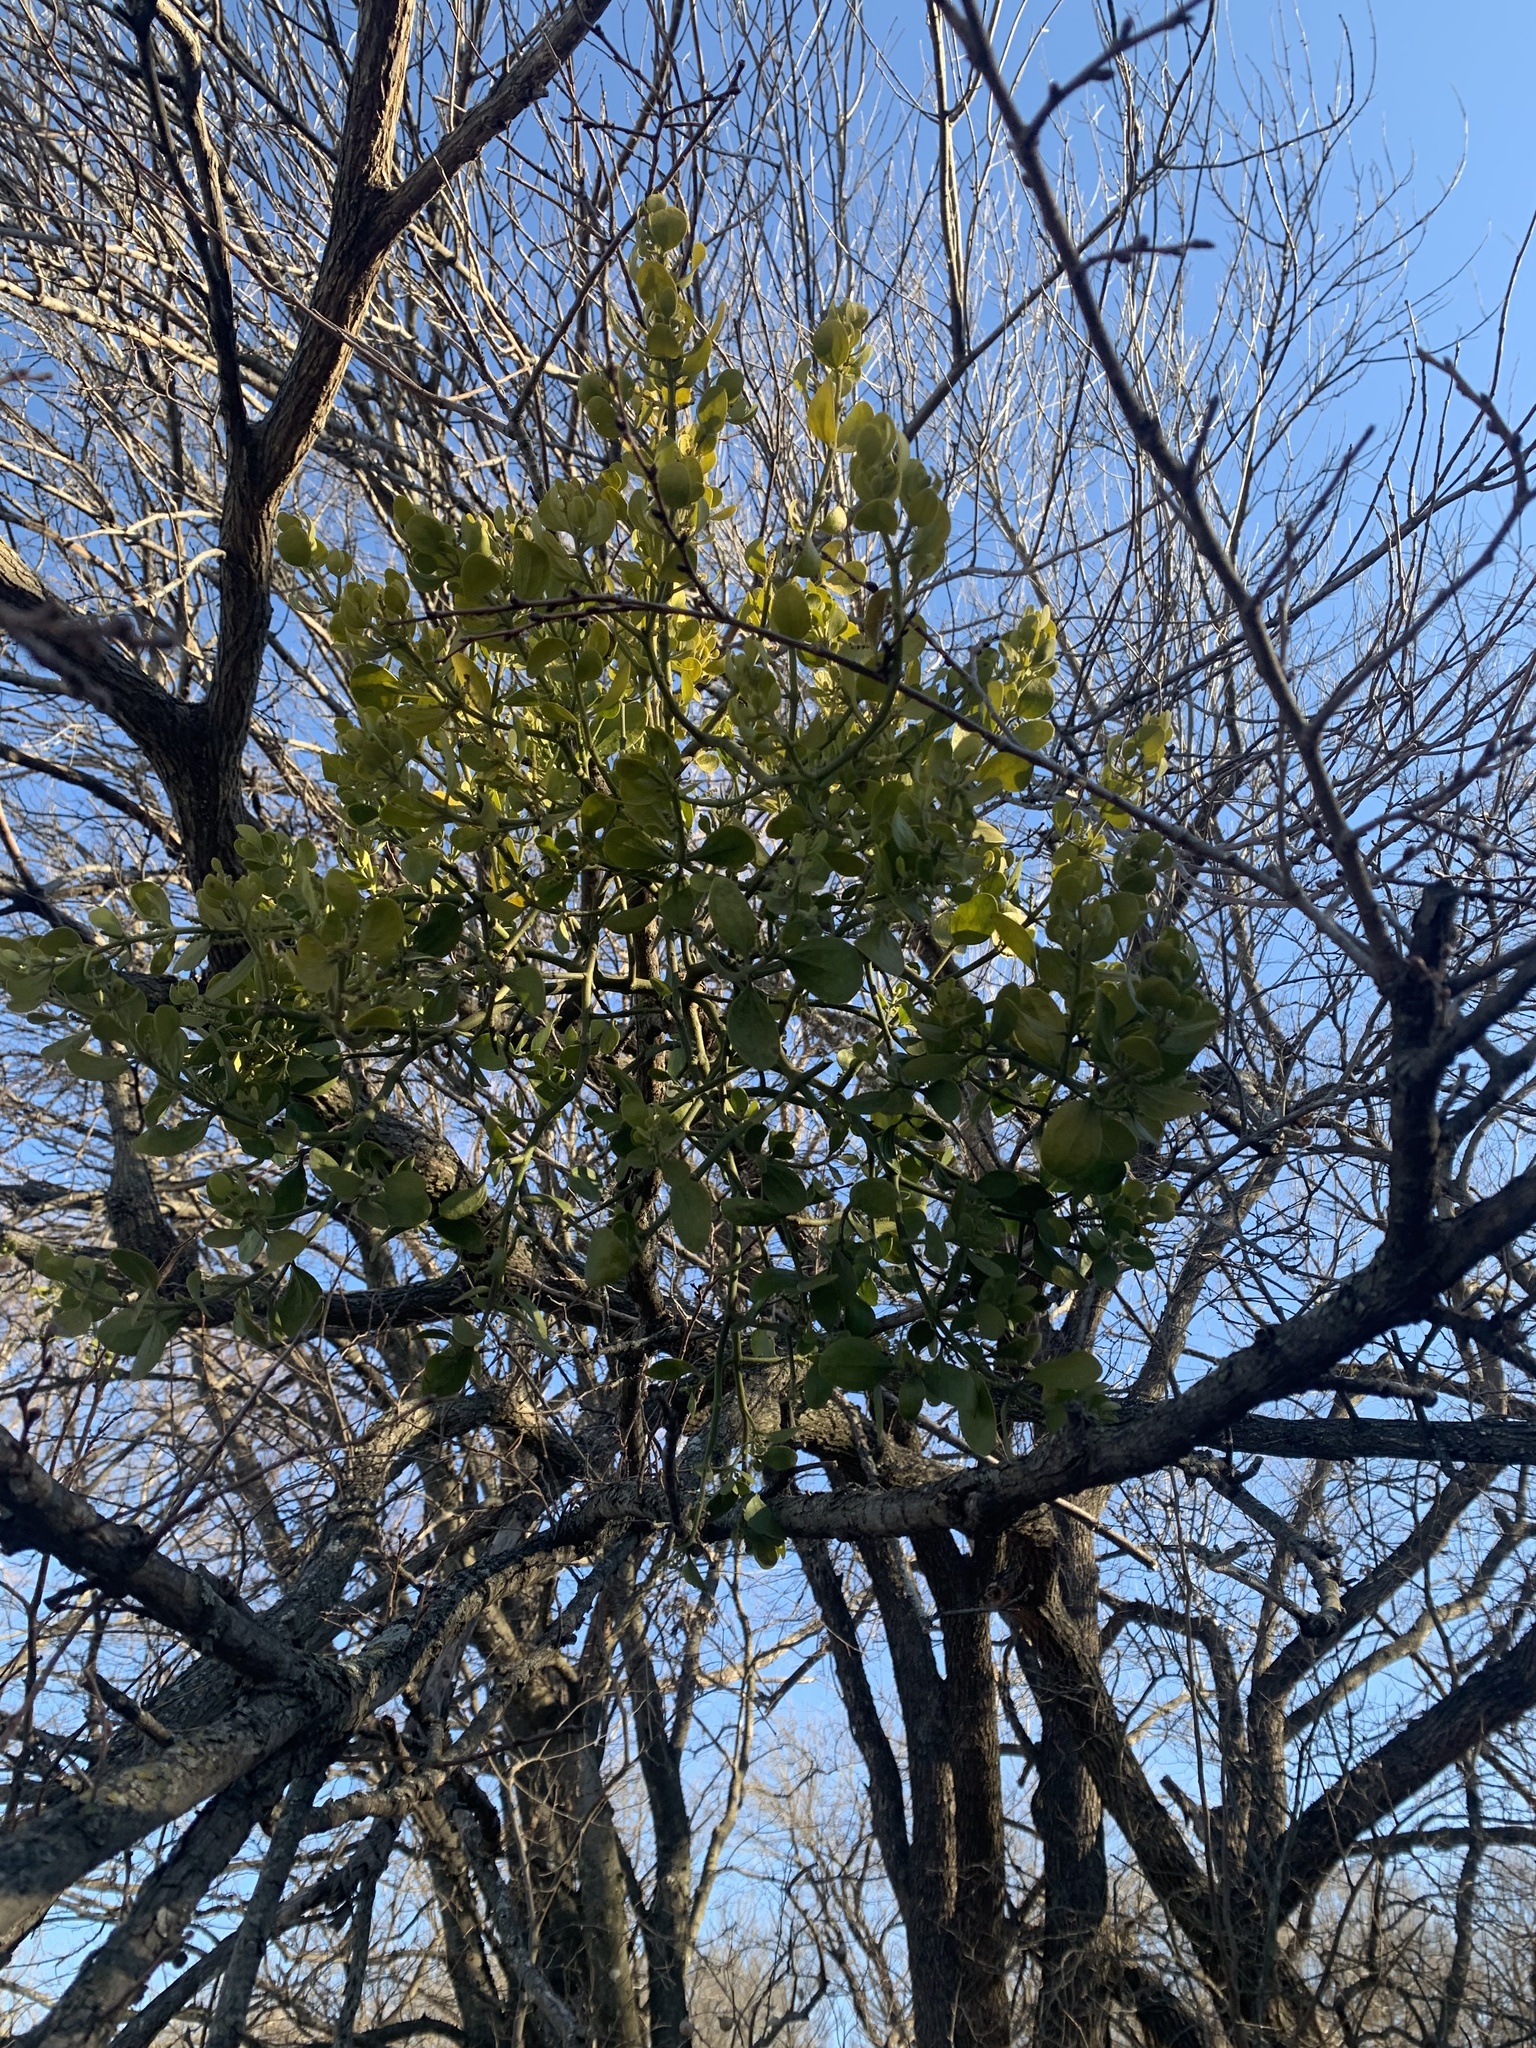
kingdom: Plantae
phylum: Tracheophyta
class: Magnoliopsida
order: Santalales
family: Viscaceae
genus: Phoradendron
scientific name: Phoradendron leucarpum
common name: Pacific mistletoe
